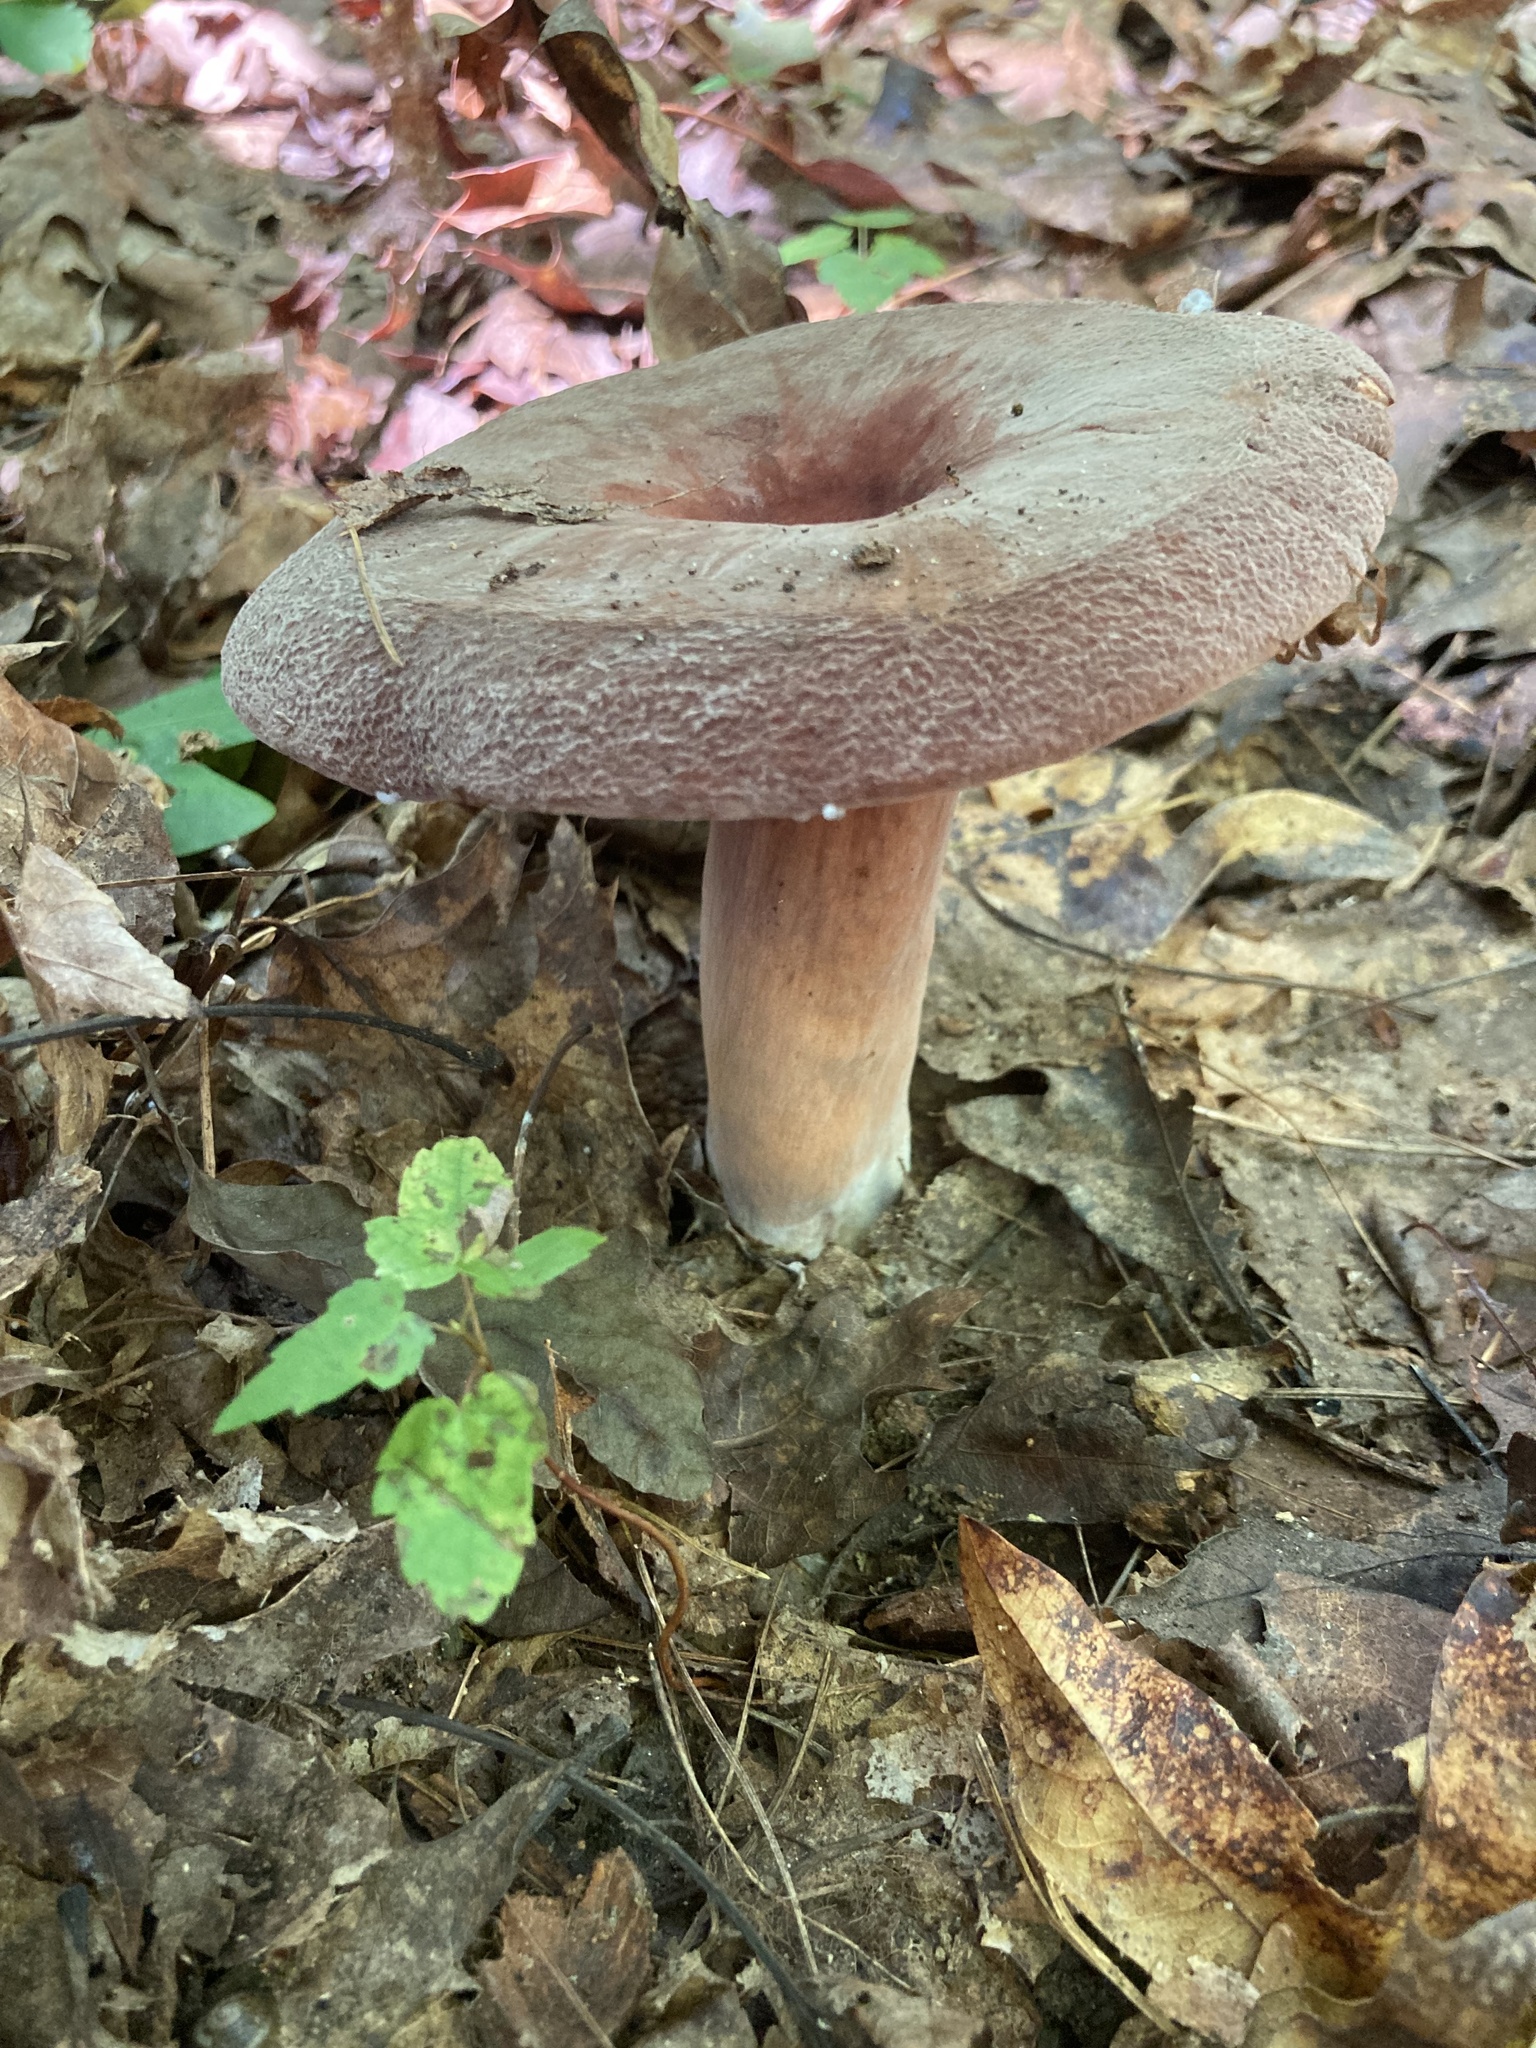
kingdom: Fungi
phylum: Basidiomycota
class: Agaricomycetes
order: Russulales
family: Russulaceae
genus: Lactarius
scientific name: Lactarius corrugis
